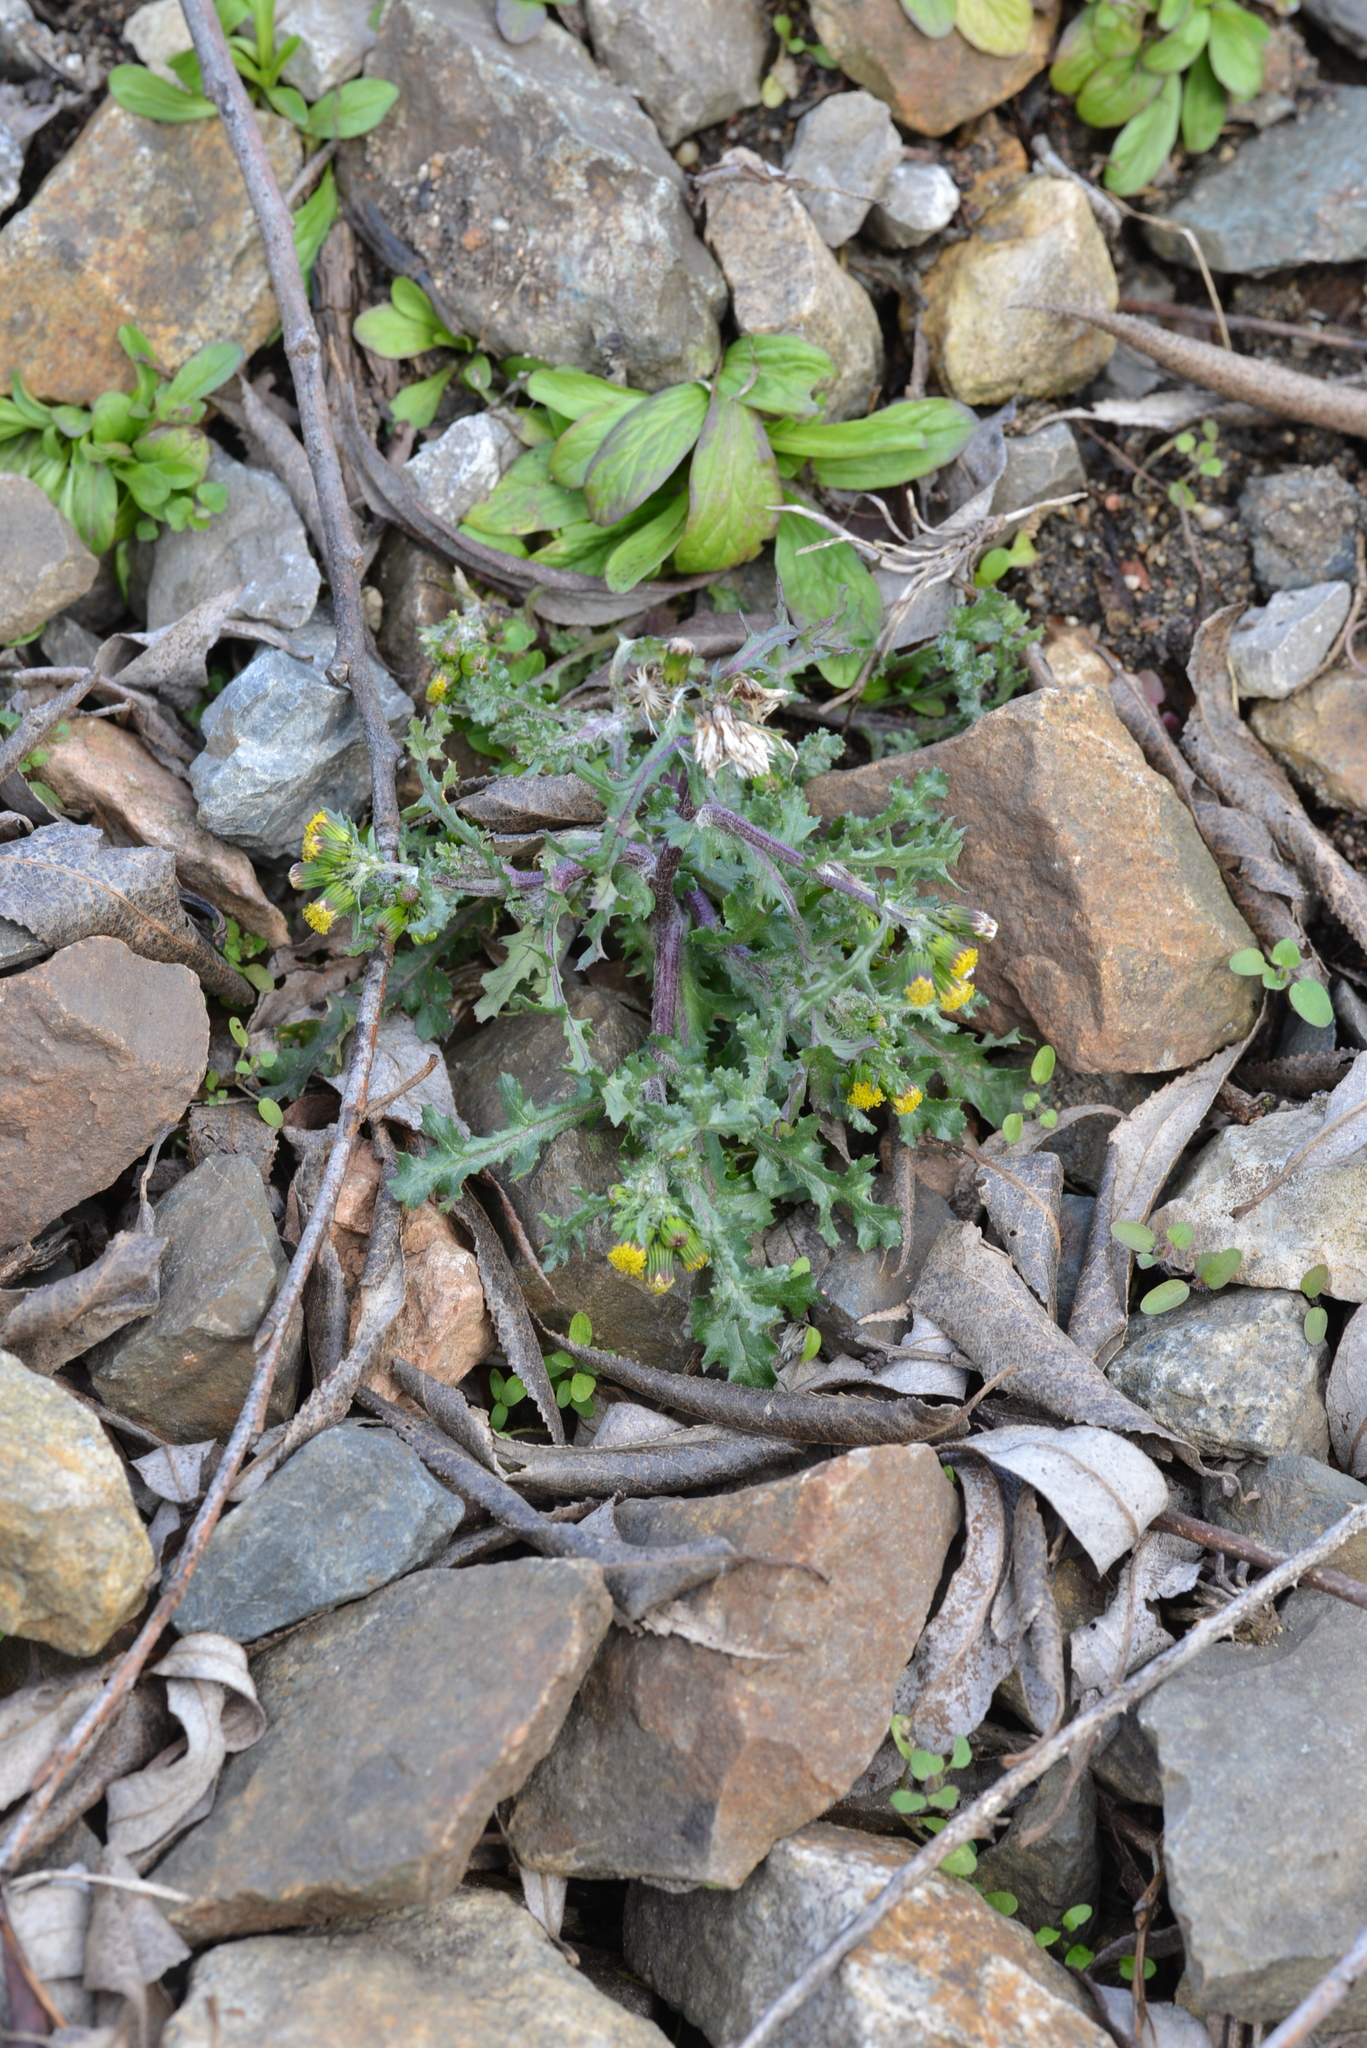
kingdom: Plantae
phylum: Tracheophyta
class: Magnoliopsida
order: Asterales
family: Asteraceae
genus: Senecio
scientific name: Senecio vulgaris
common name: Old-man-in-the-spring
